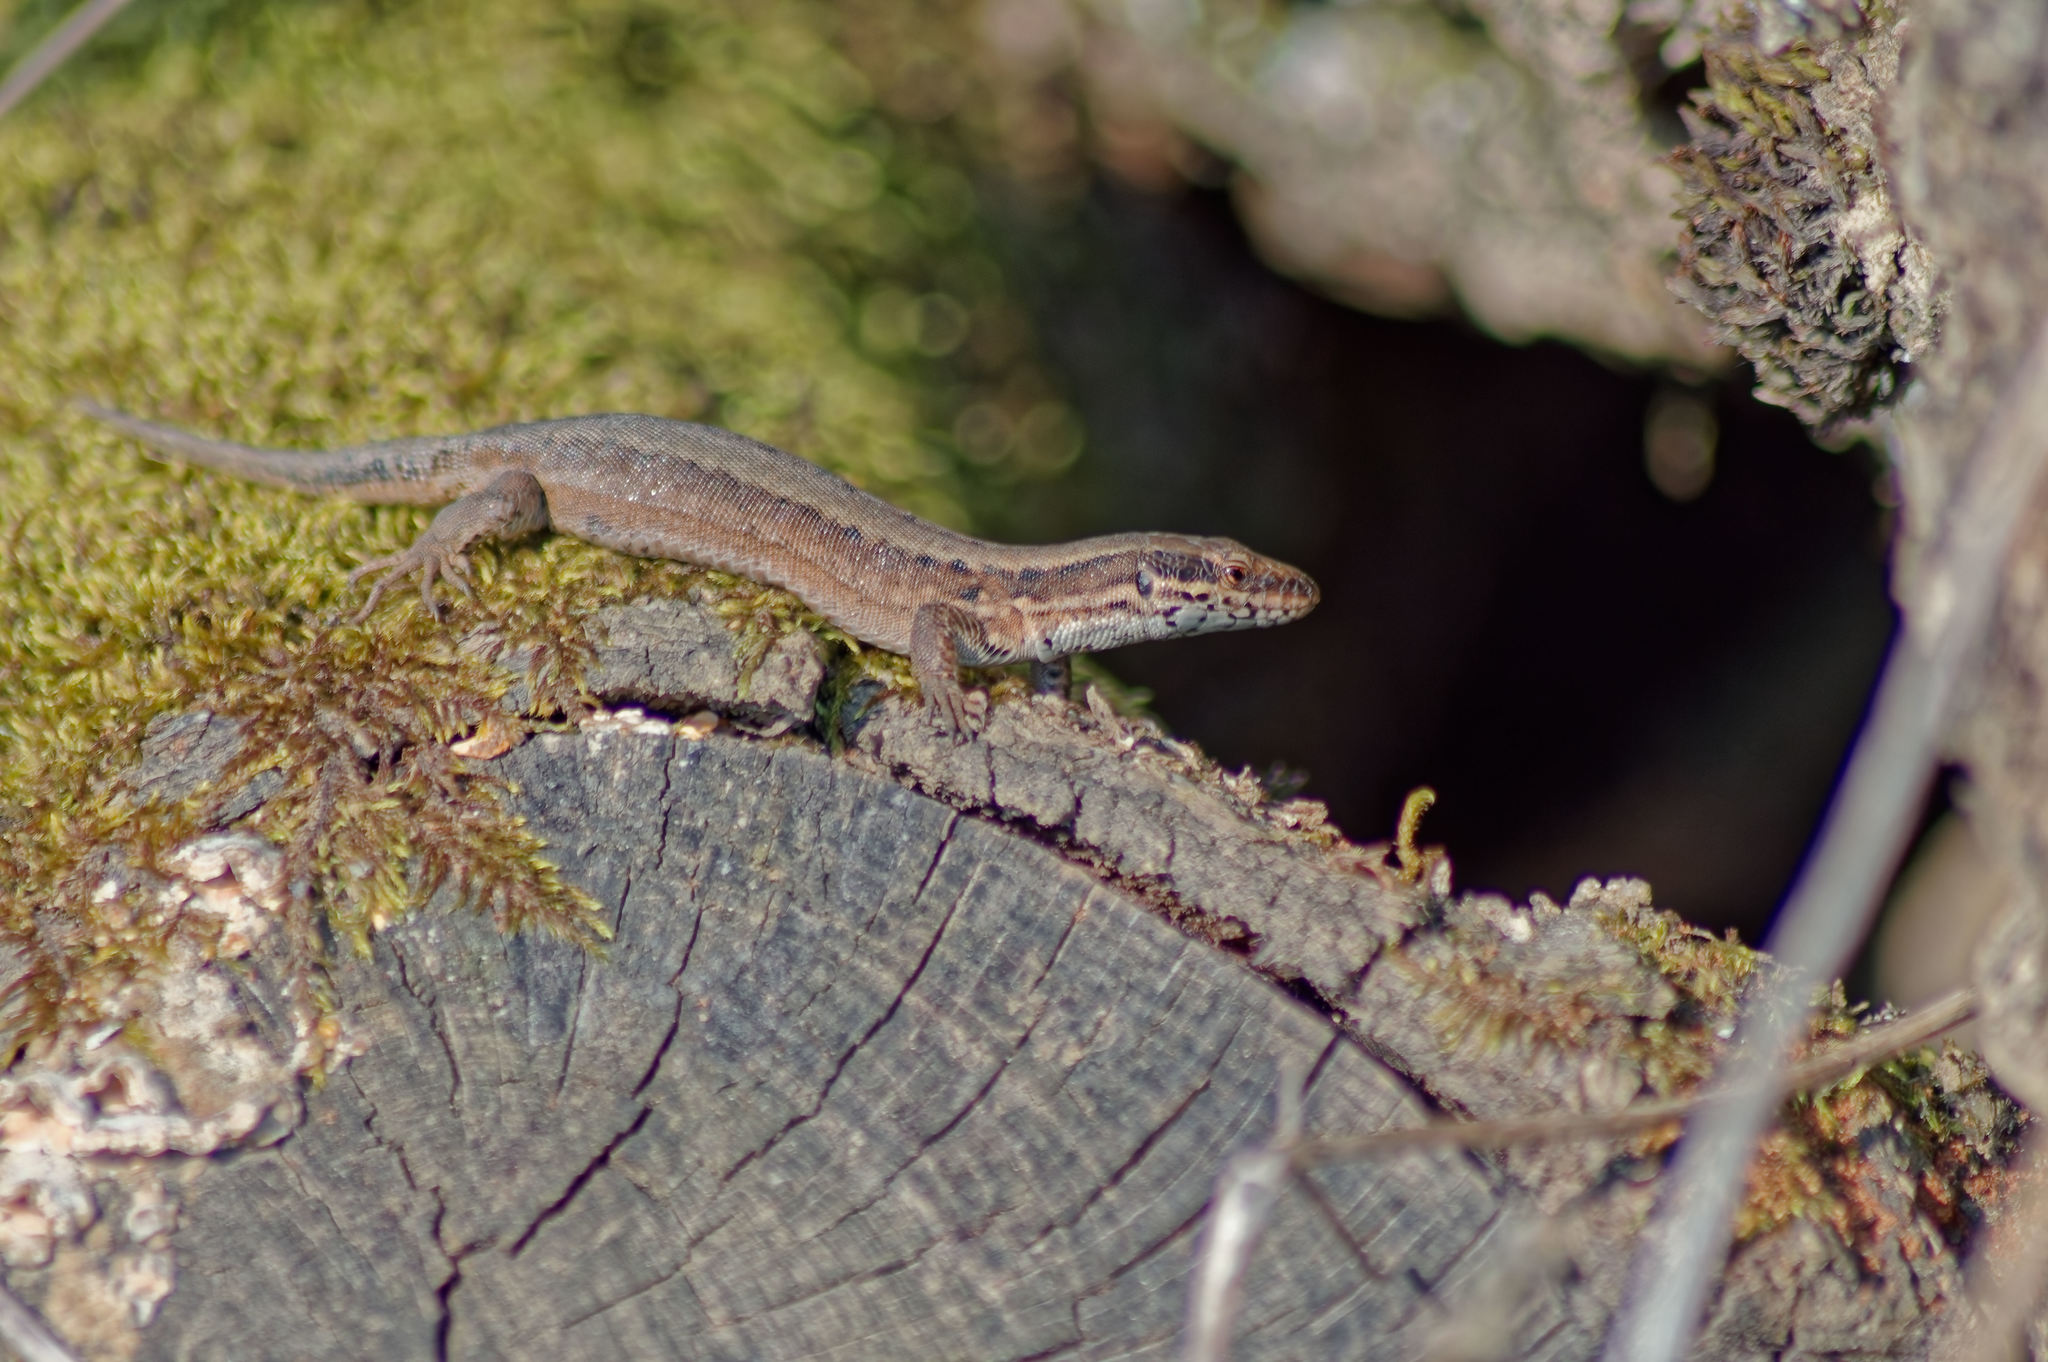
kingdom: Animalia
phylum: Chordata
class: Squamata
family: Lacertidae
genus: Podarcis
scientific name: Podarcis muralis
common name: Common wall lizard
